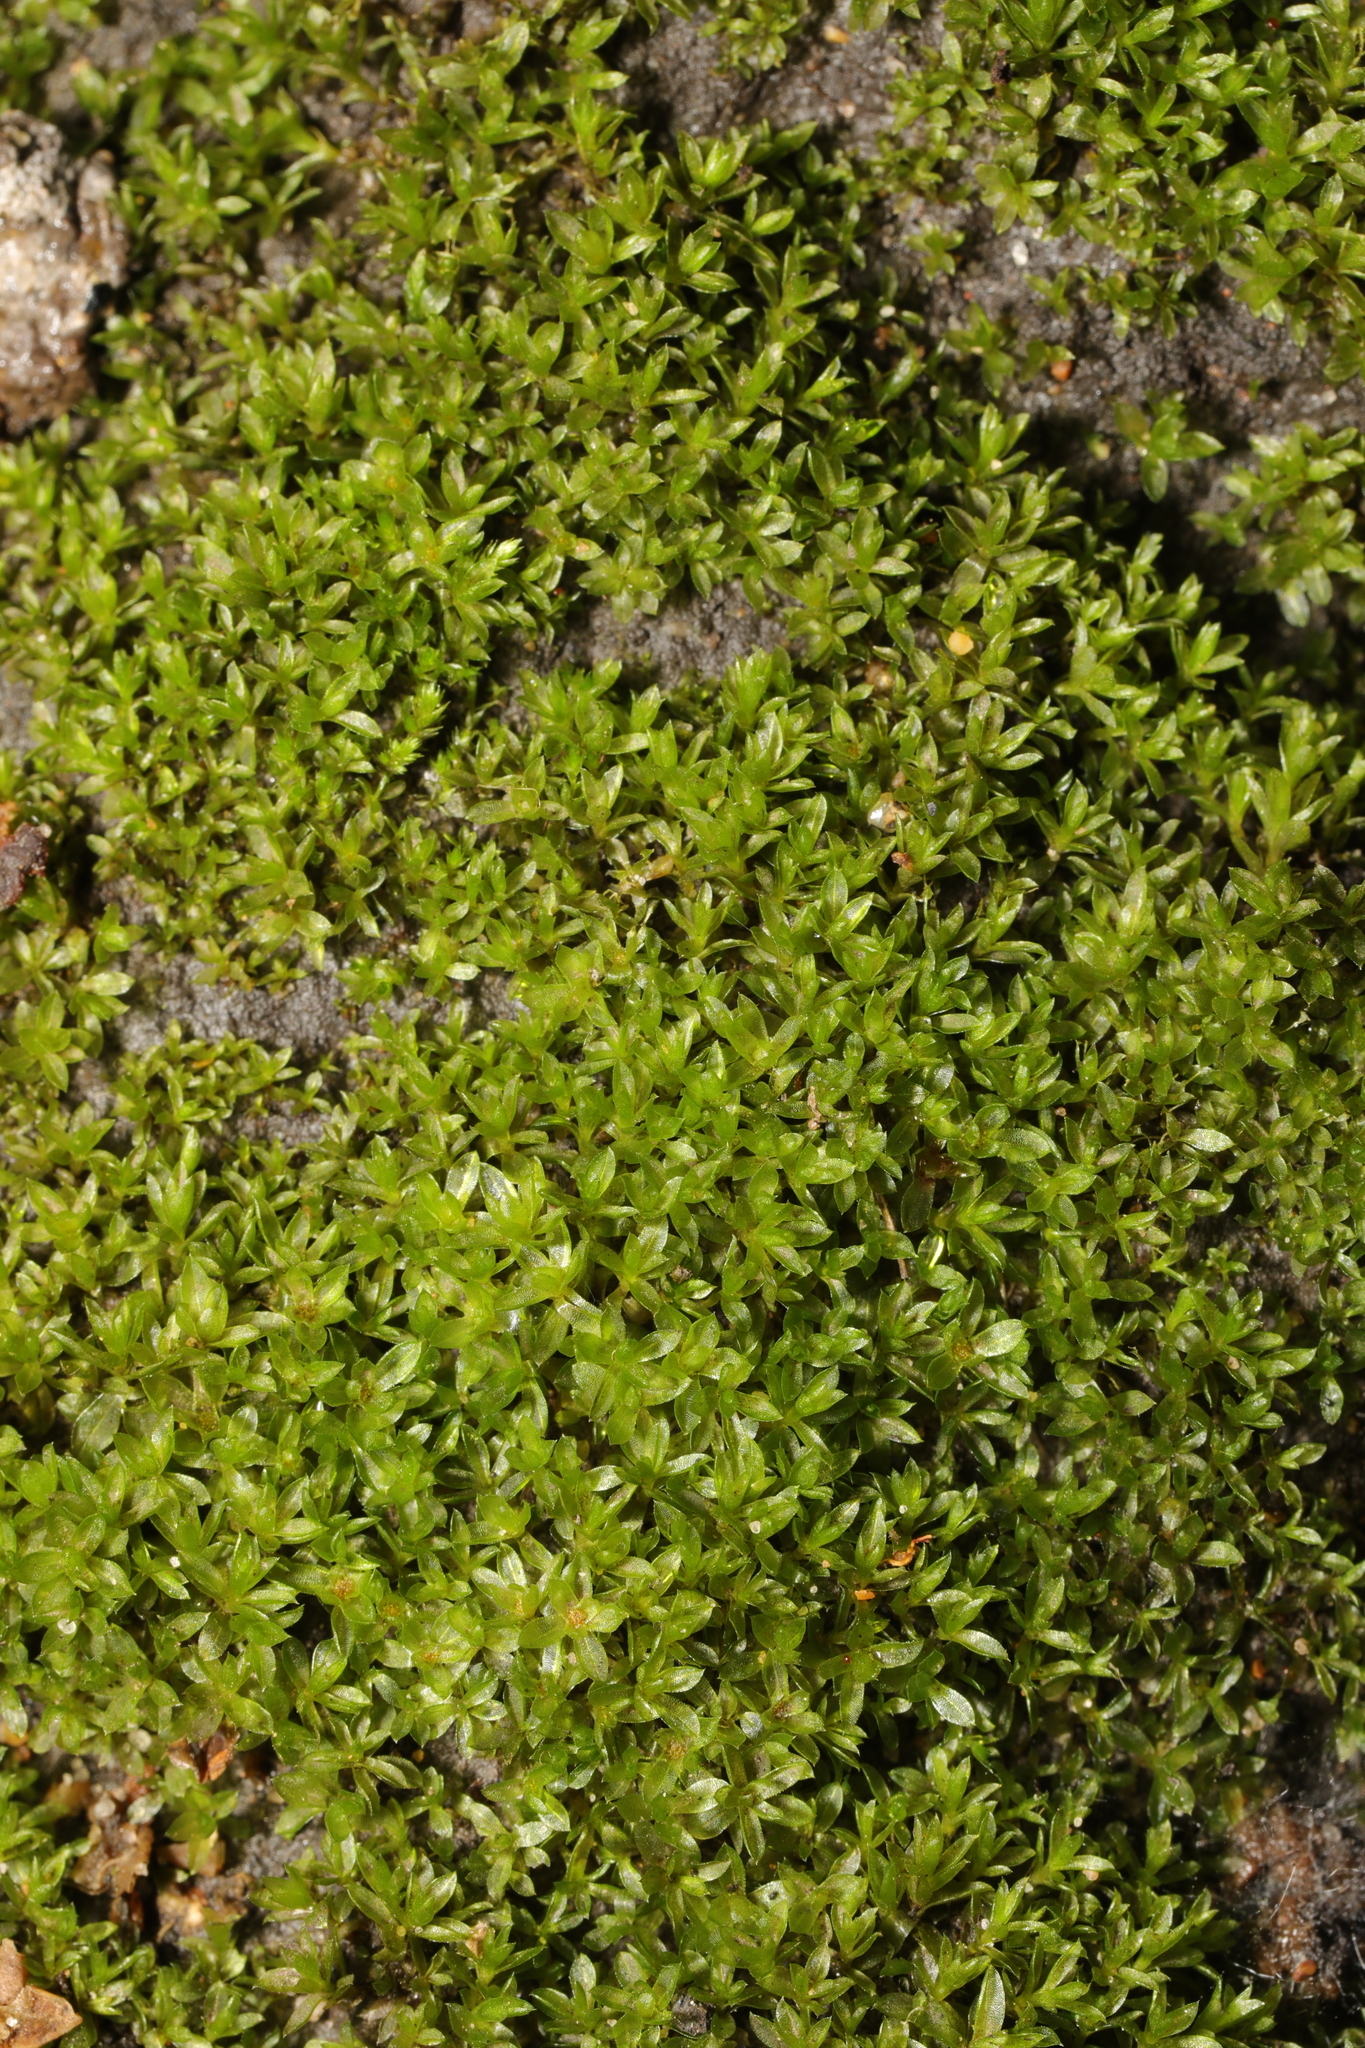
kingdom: Plantae
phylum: Bryophyta
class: Bryopsida
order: Bryales
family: Bryaceae
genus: Rosulabryum
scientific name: Rosulabryum capillare
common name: Capillary thread-moss
